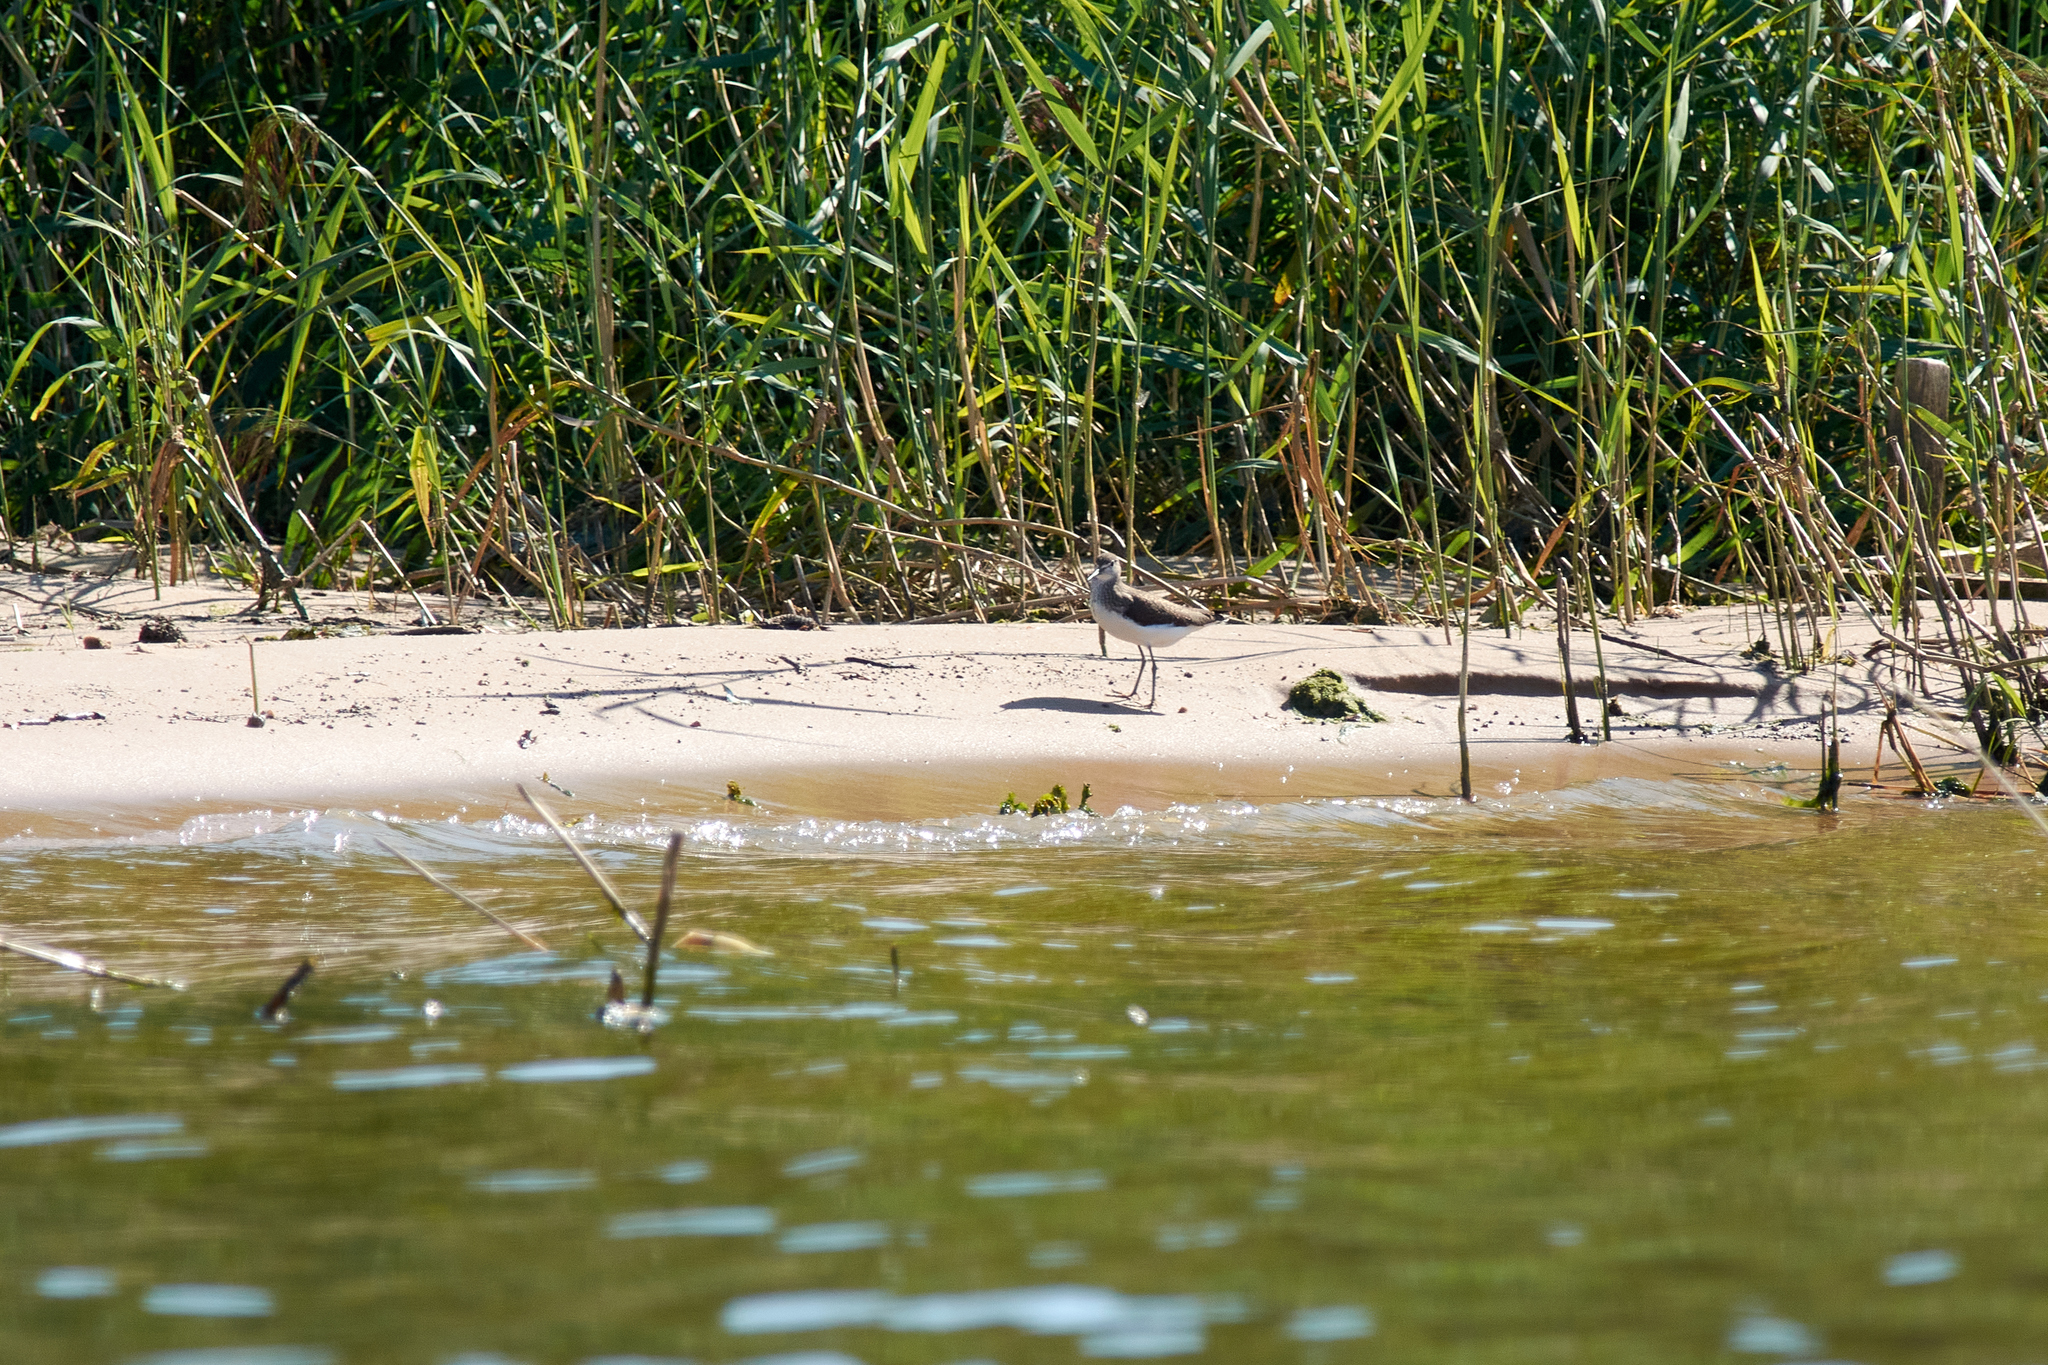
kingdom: Animalia
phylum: Chordata
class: Aves
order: Charadriiformes
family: Scolopacidae
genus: Tringa
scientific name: Tringa ochropus
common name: Green sandpiper
